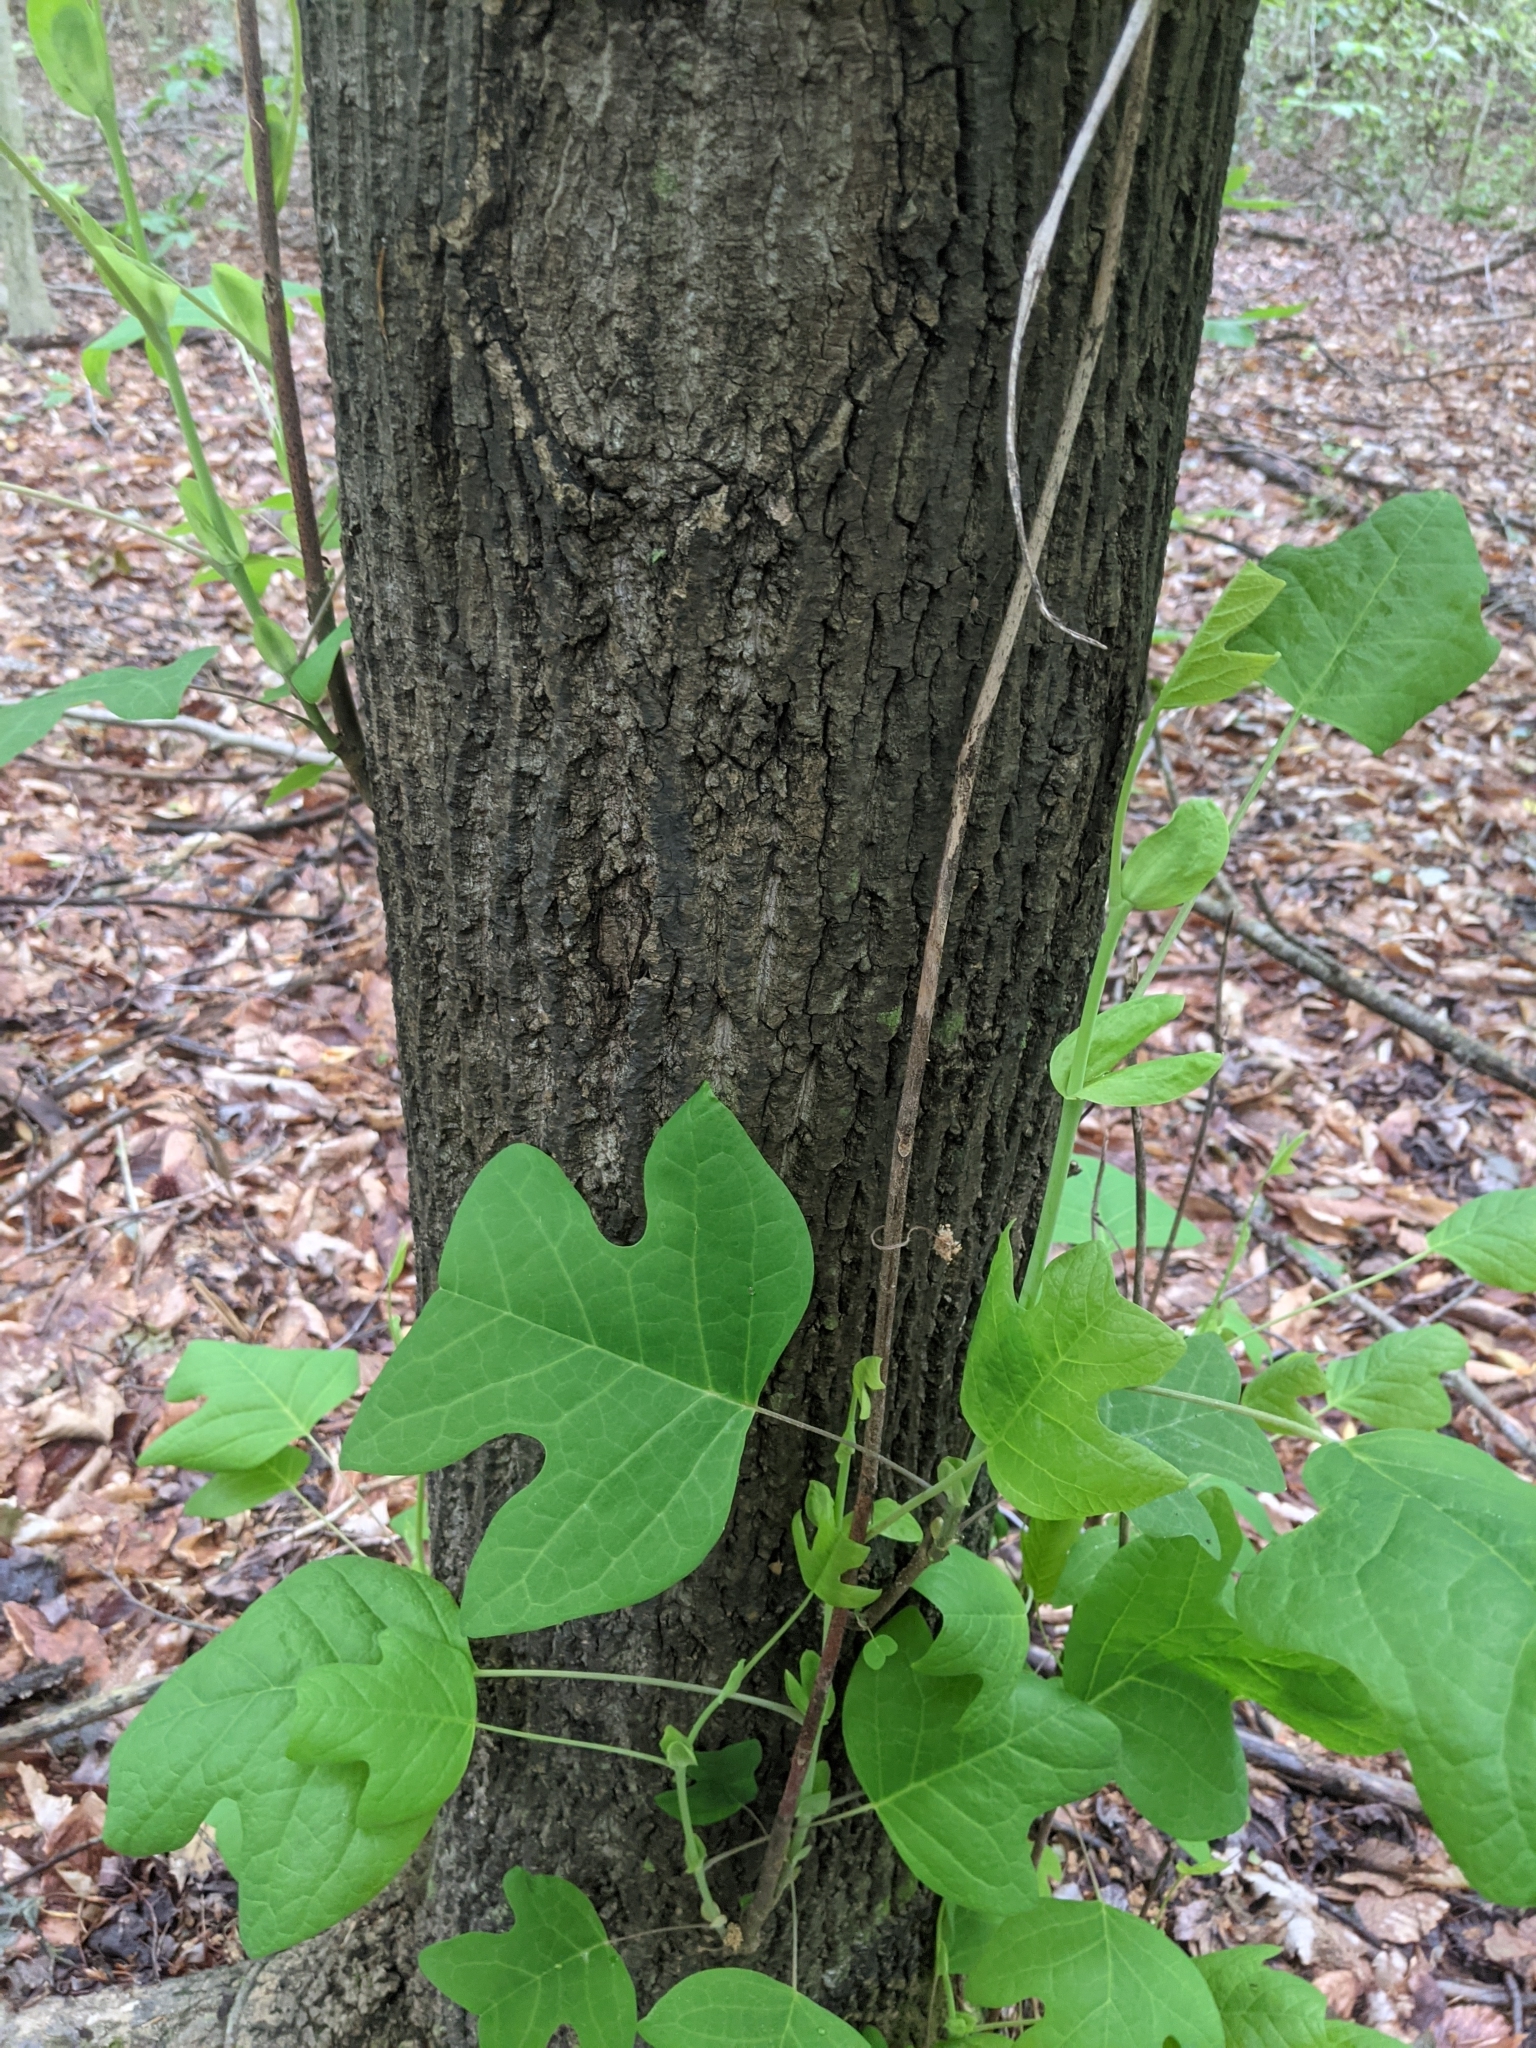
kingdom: Plantae
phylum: Tracheophyta
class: Magnoliopsida
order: Magnoliales
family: Magnoliaceae
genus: Liriodendron
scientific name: Liriodendron tulipifera
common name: Tulip tree
